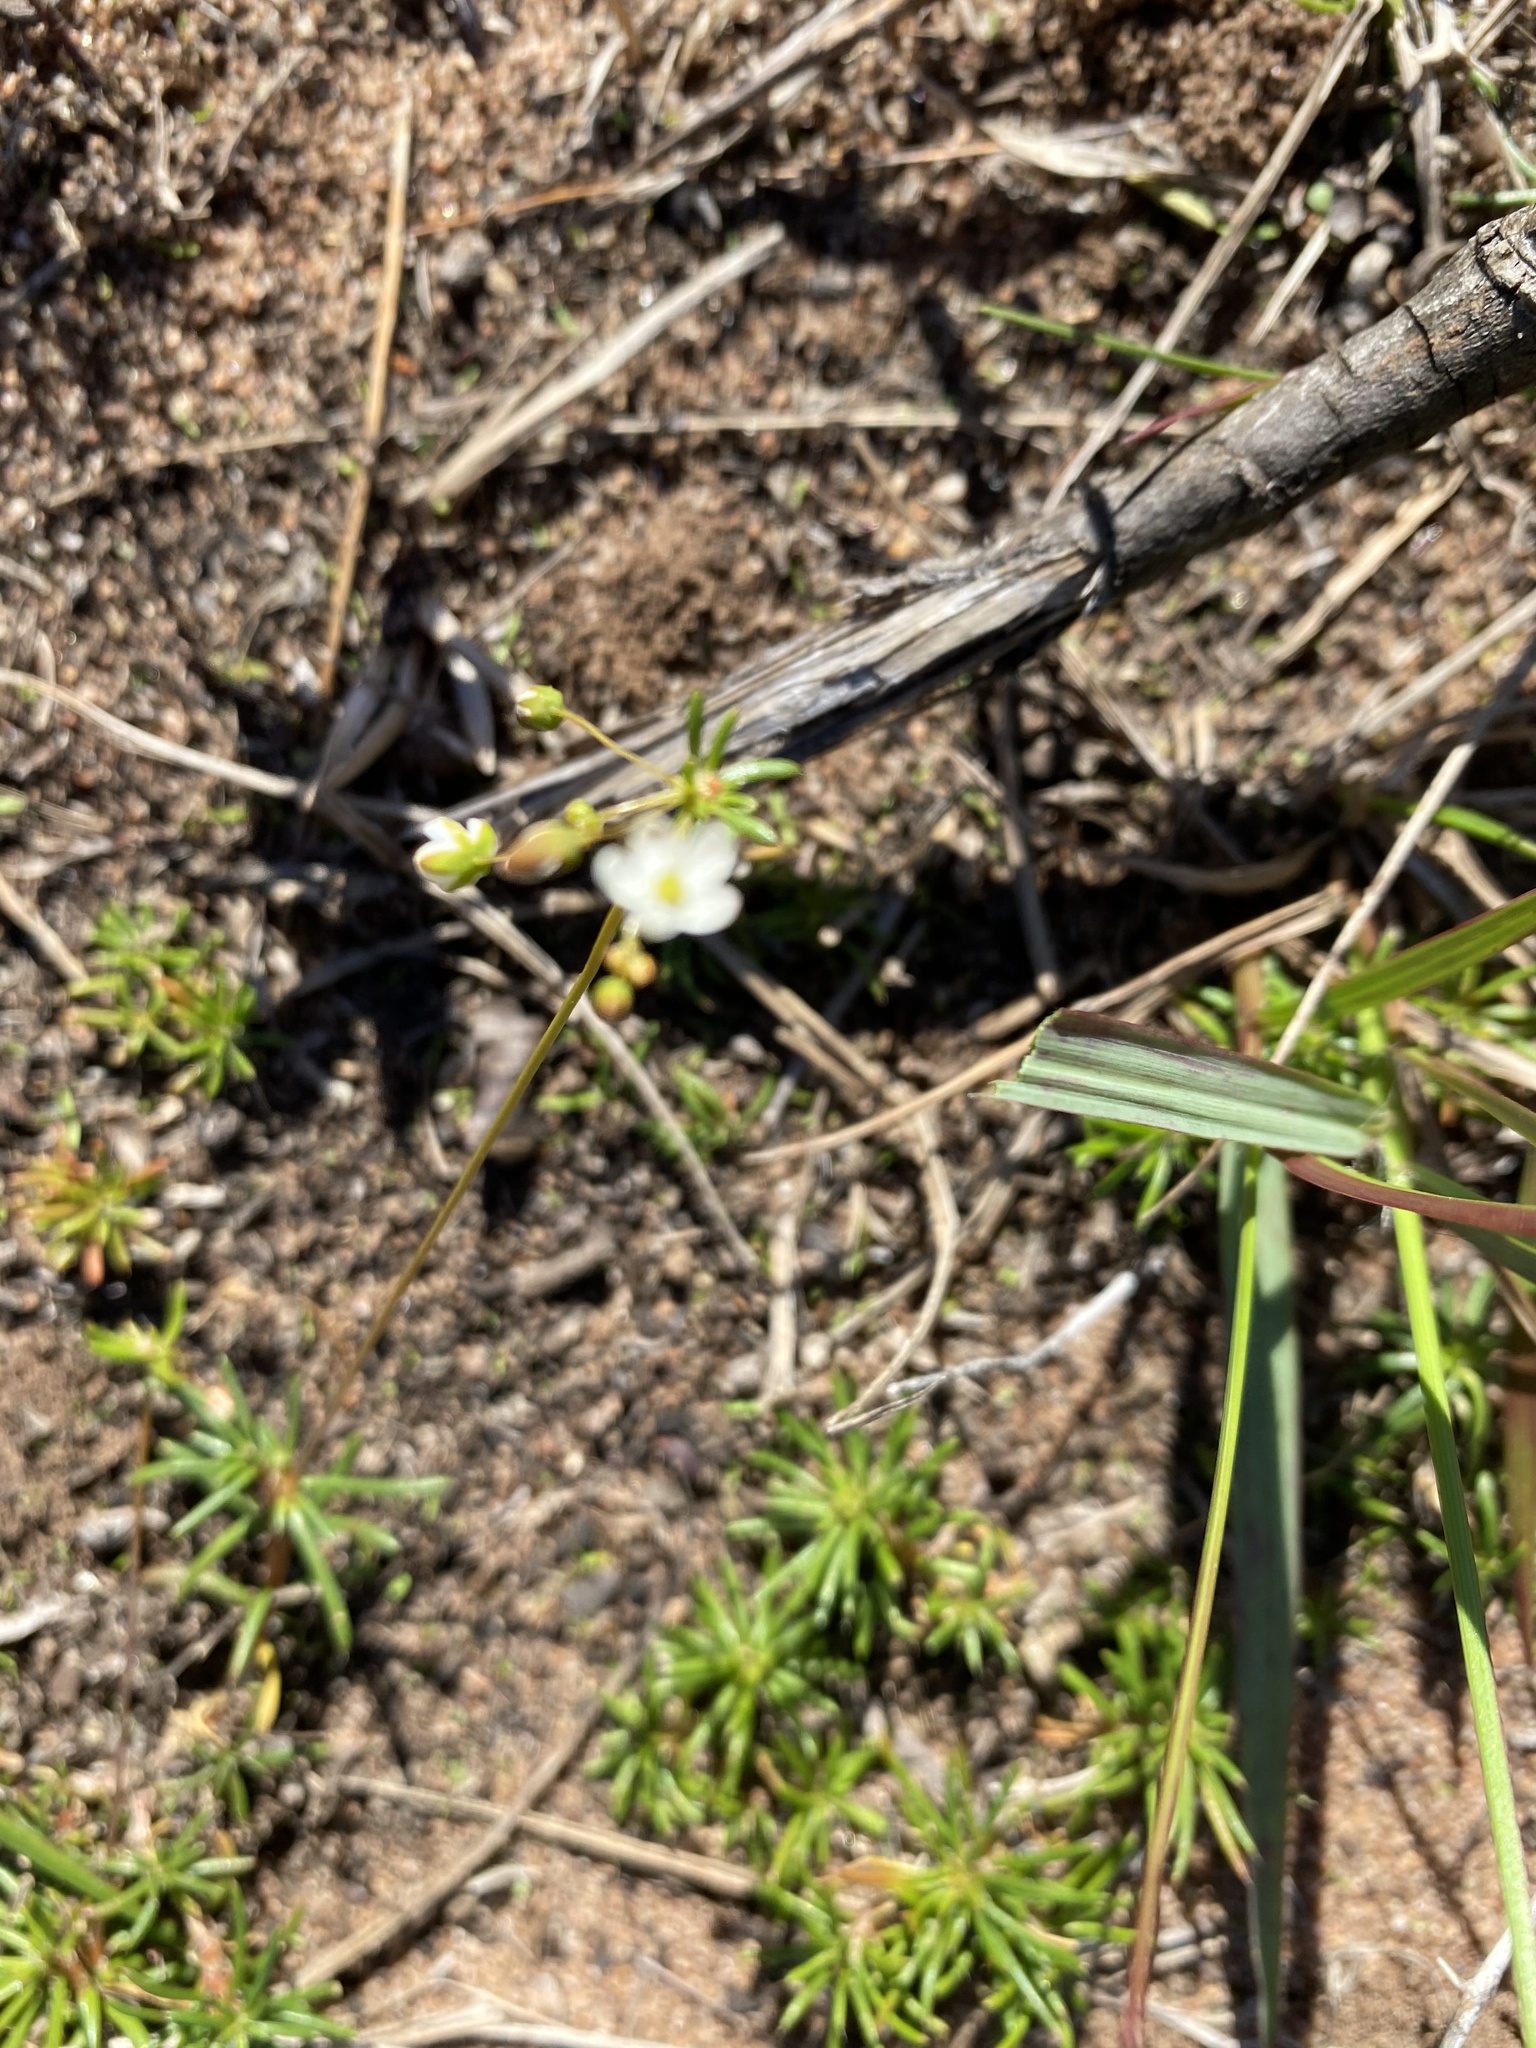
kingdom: Plantae
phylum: Tracheophyta
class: Magnoliopsida
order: Caryophyllales
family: Molluginaceae
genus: Pharnaceum
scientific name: Pharnaceum dichotomum
